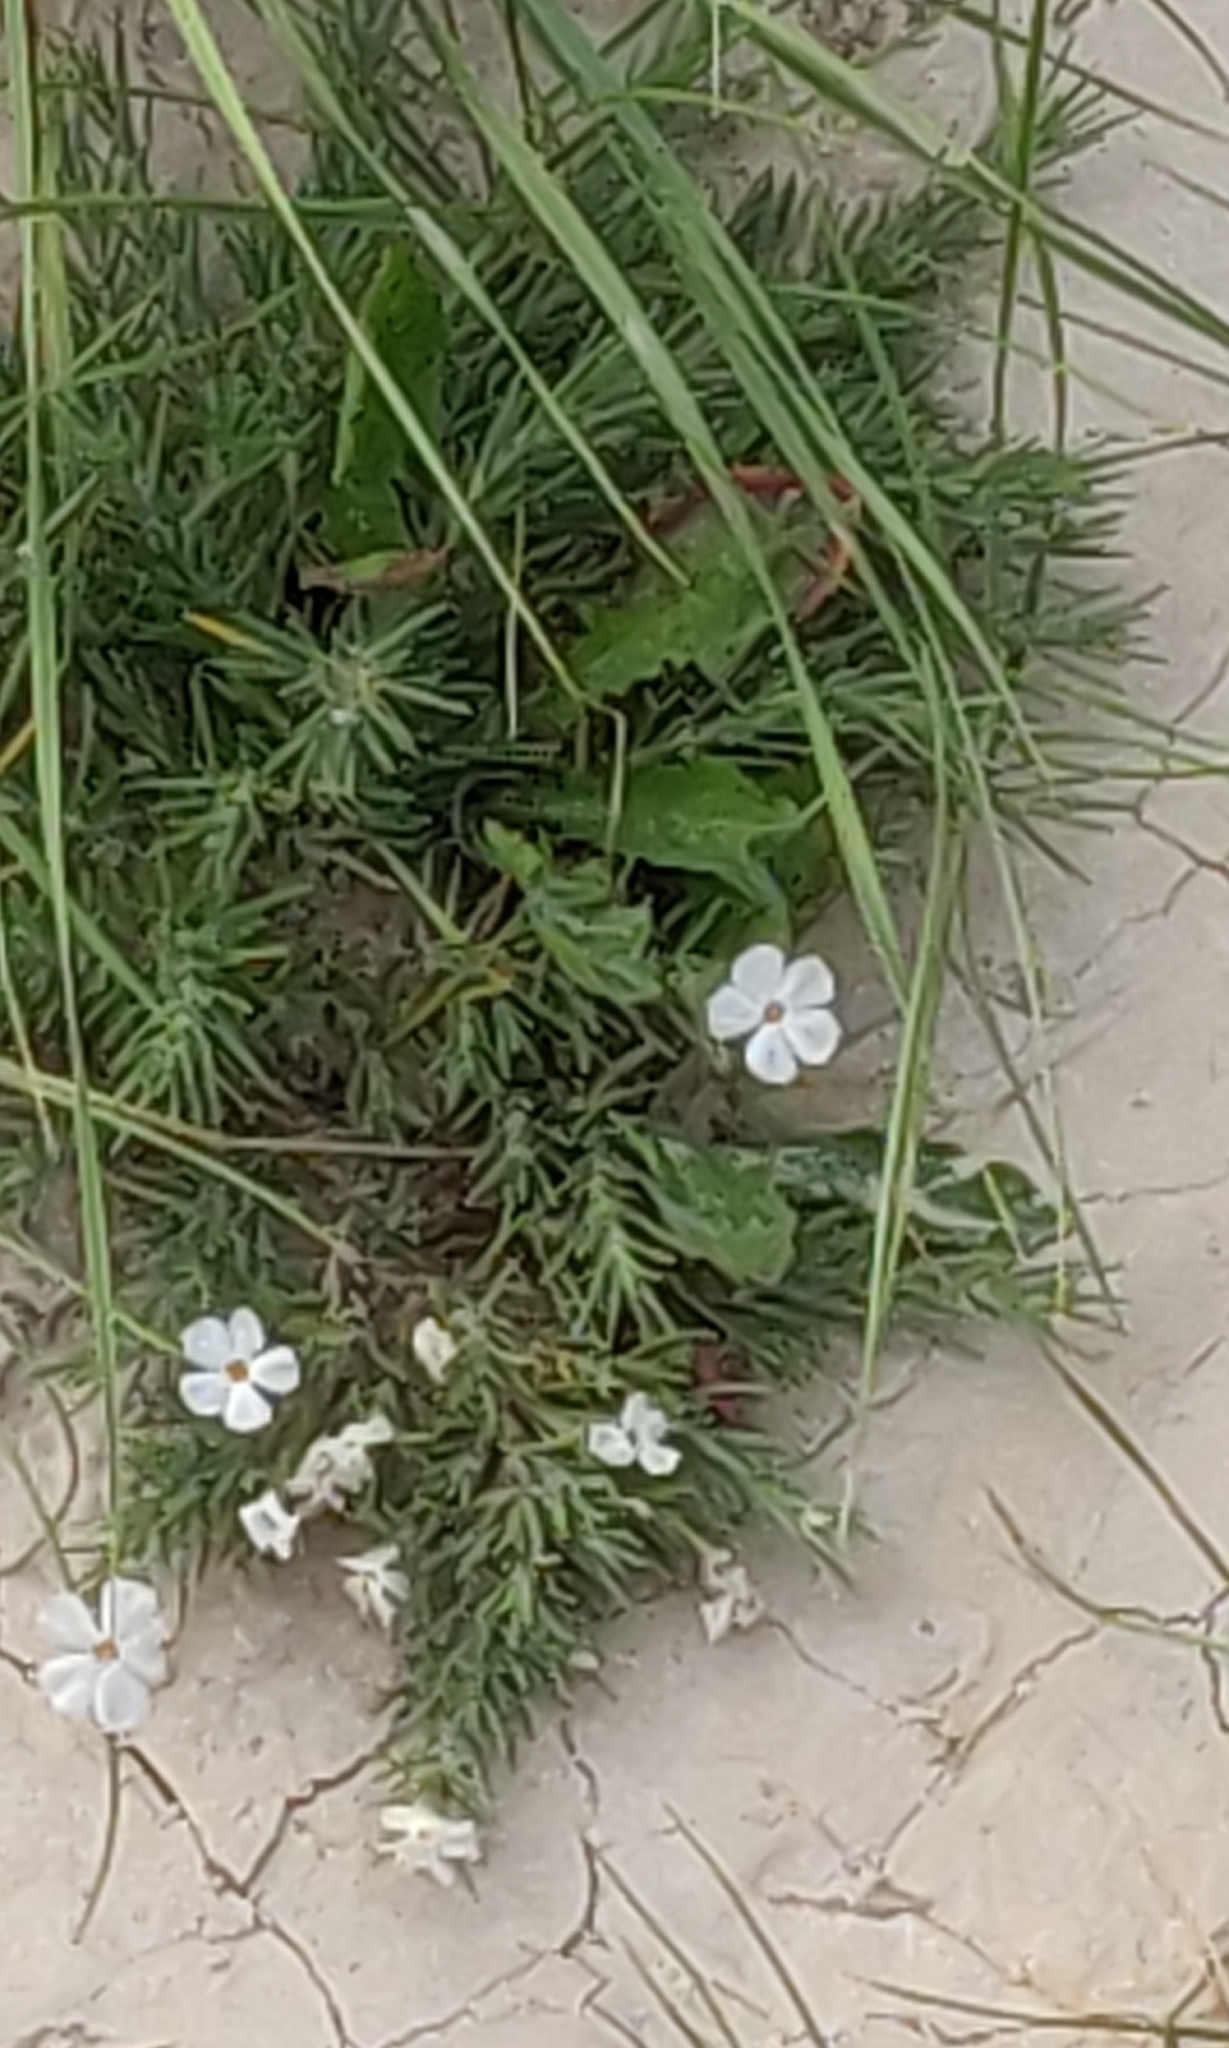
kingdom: Plantae
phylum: Tracheophyta
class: Magnoliopsida
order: Ericales
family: Polemoniaceae
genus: Phlox
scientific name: Phlox andicola
